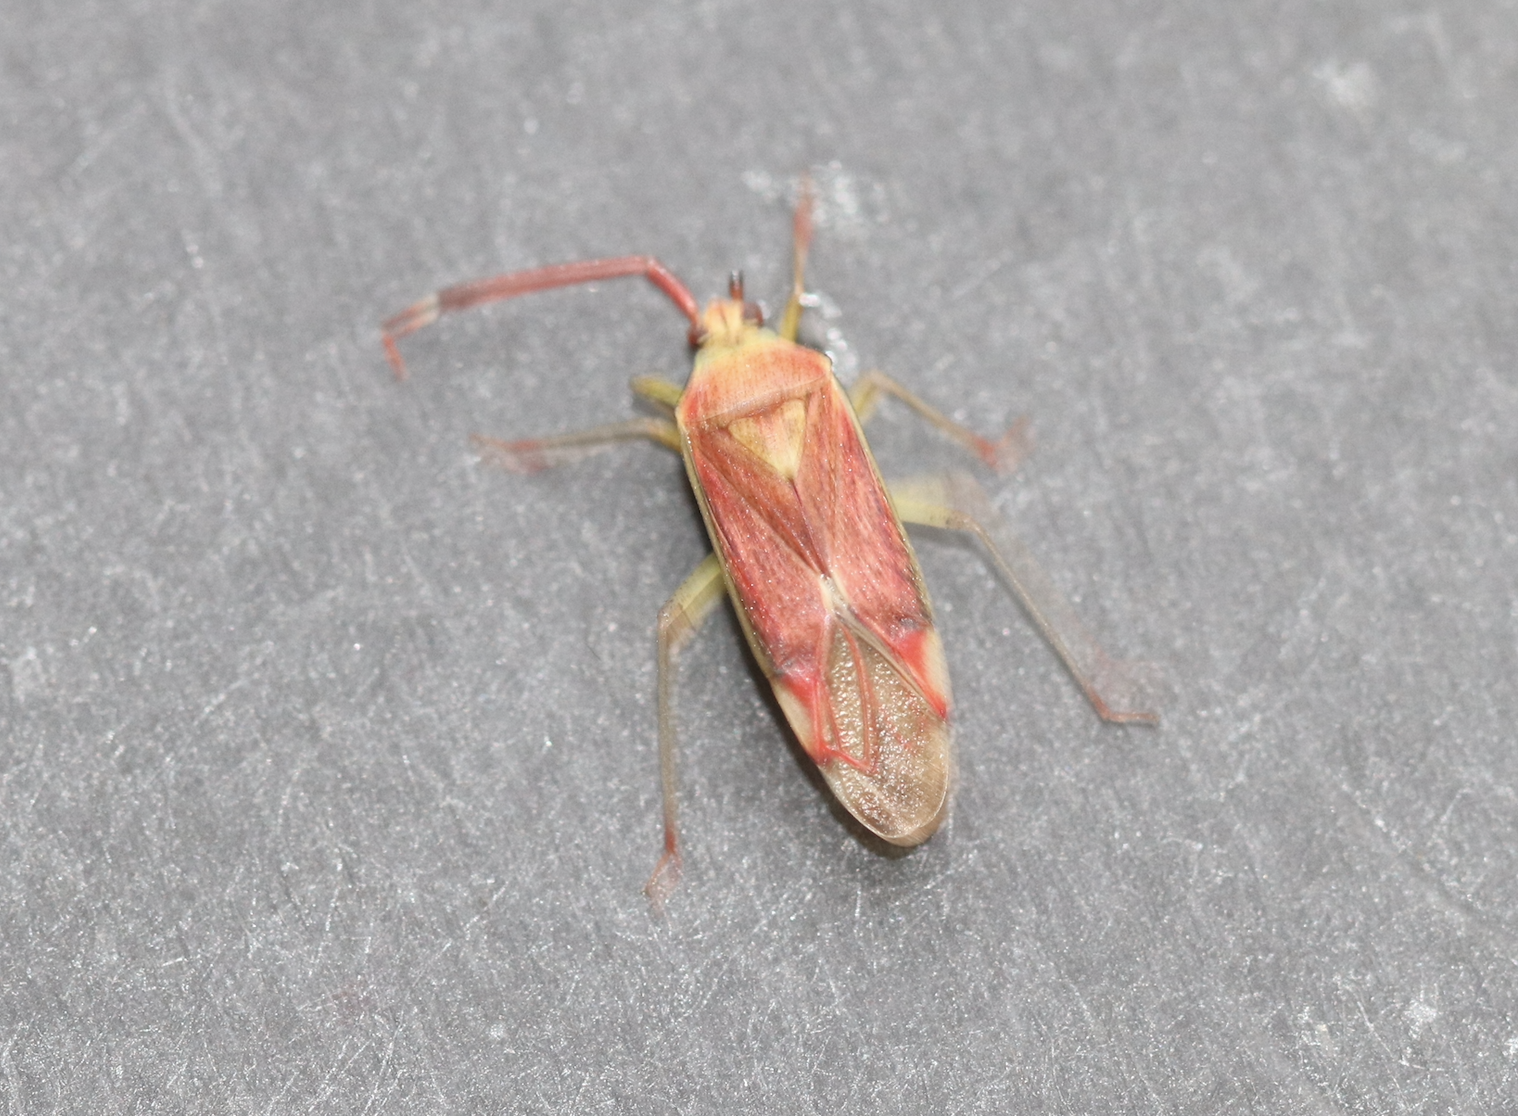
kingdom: Animalia
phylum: Arthropoda
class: Insecta
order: Hemiptera
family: Miridae
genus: Pantilius
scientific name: Pantilius tunicatus
